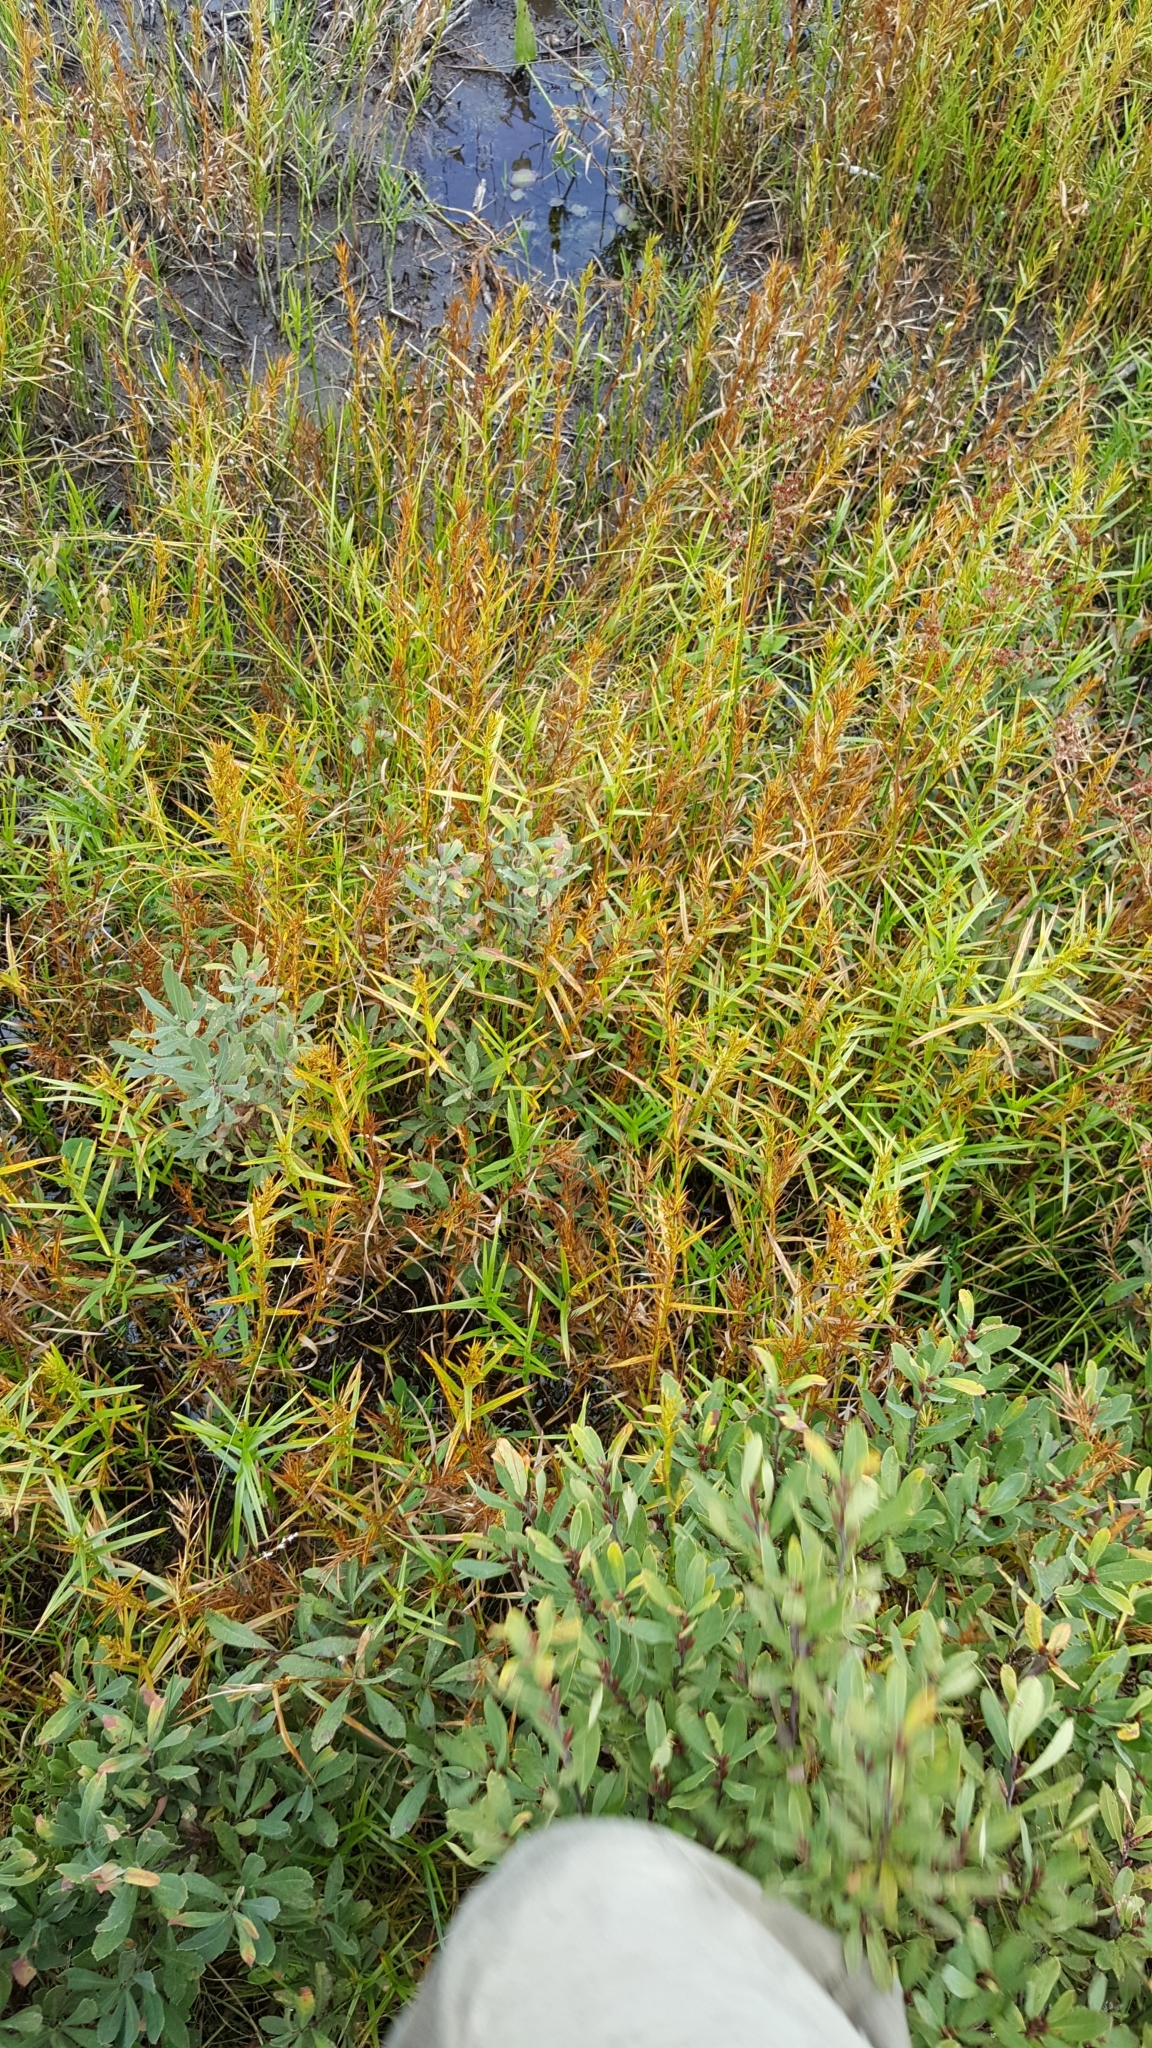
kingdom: Plantae
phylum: Tracheophyta
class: Liliopsida
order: Poales
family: Cyperaceae
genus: Dulichium
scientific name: Dulichium arundinaceum
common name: Three-way sedge
